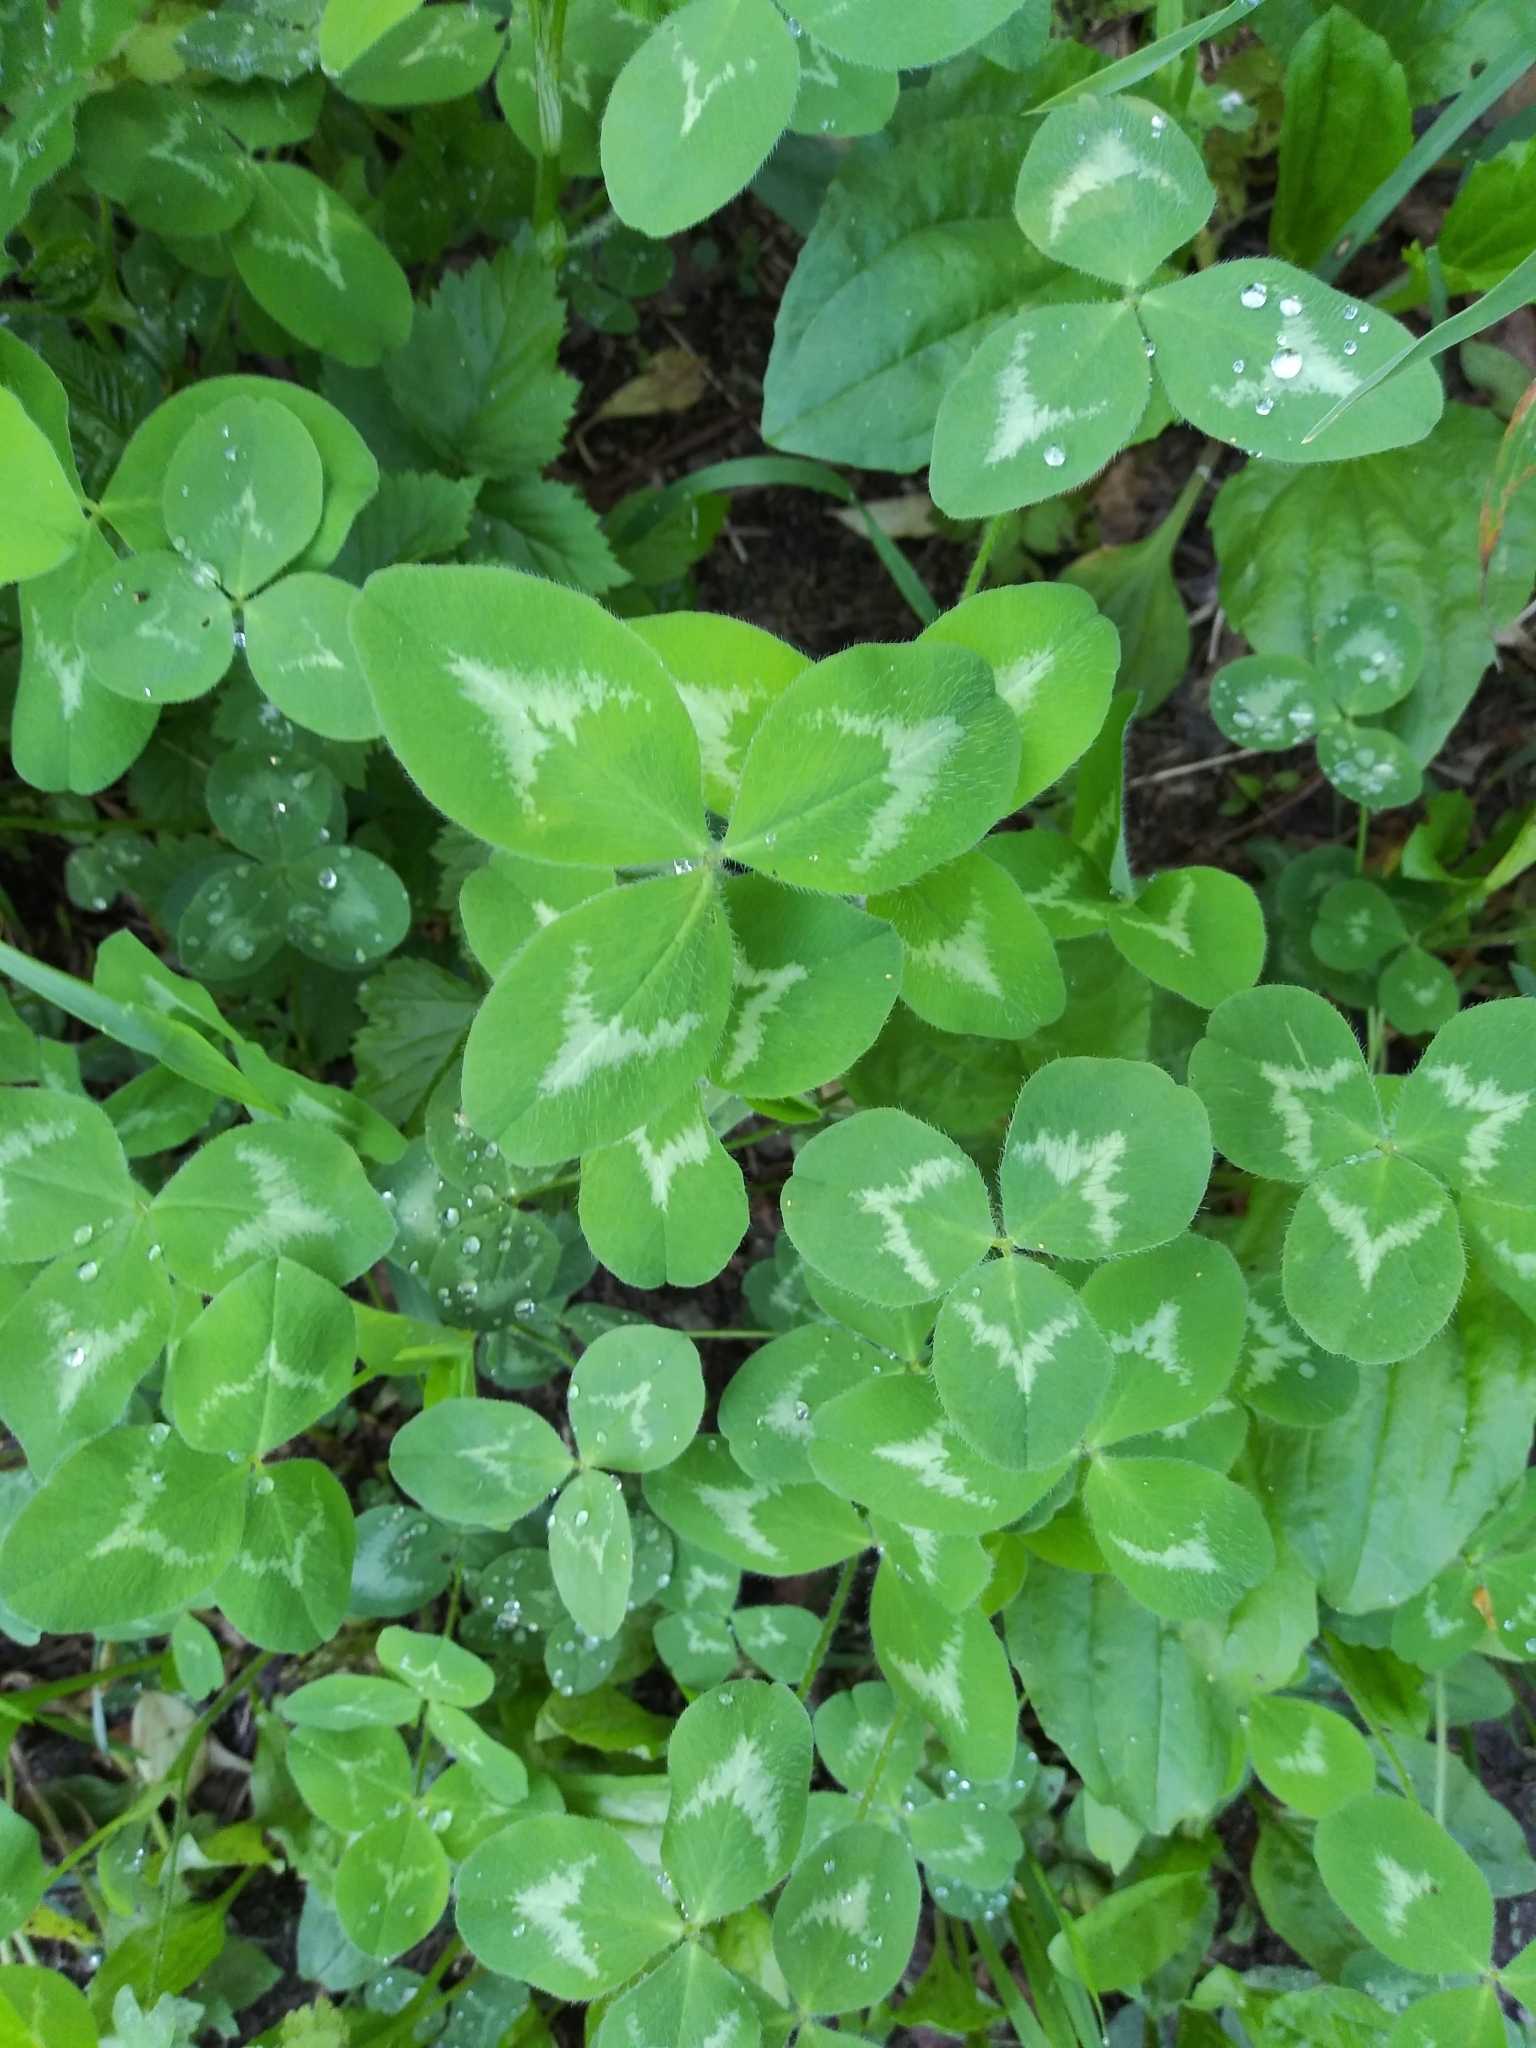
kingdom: Plantae
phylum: Tracheophyta
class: Magnoliopsida
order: Fabales
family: Fabaceae
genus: Trifolium
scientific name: Trifolium pratense
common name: Red clover
